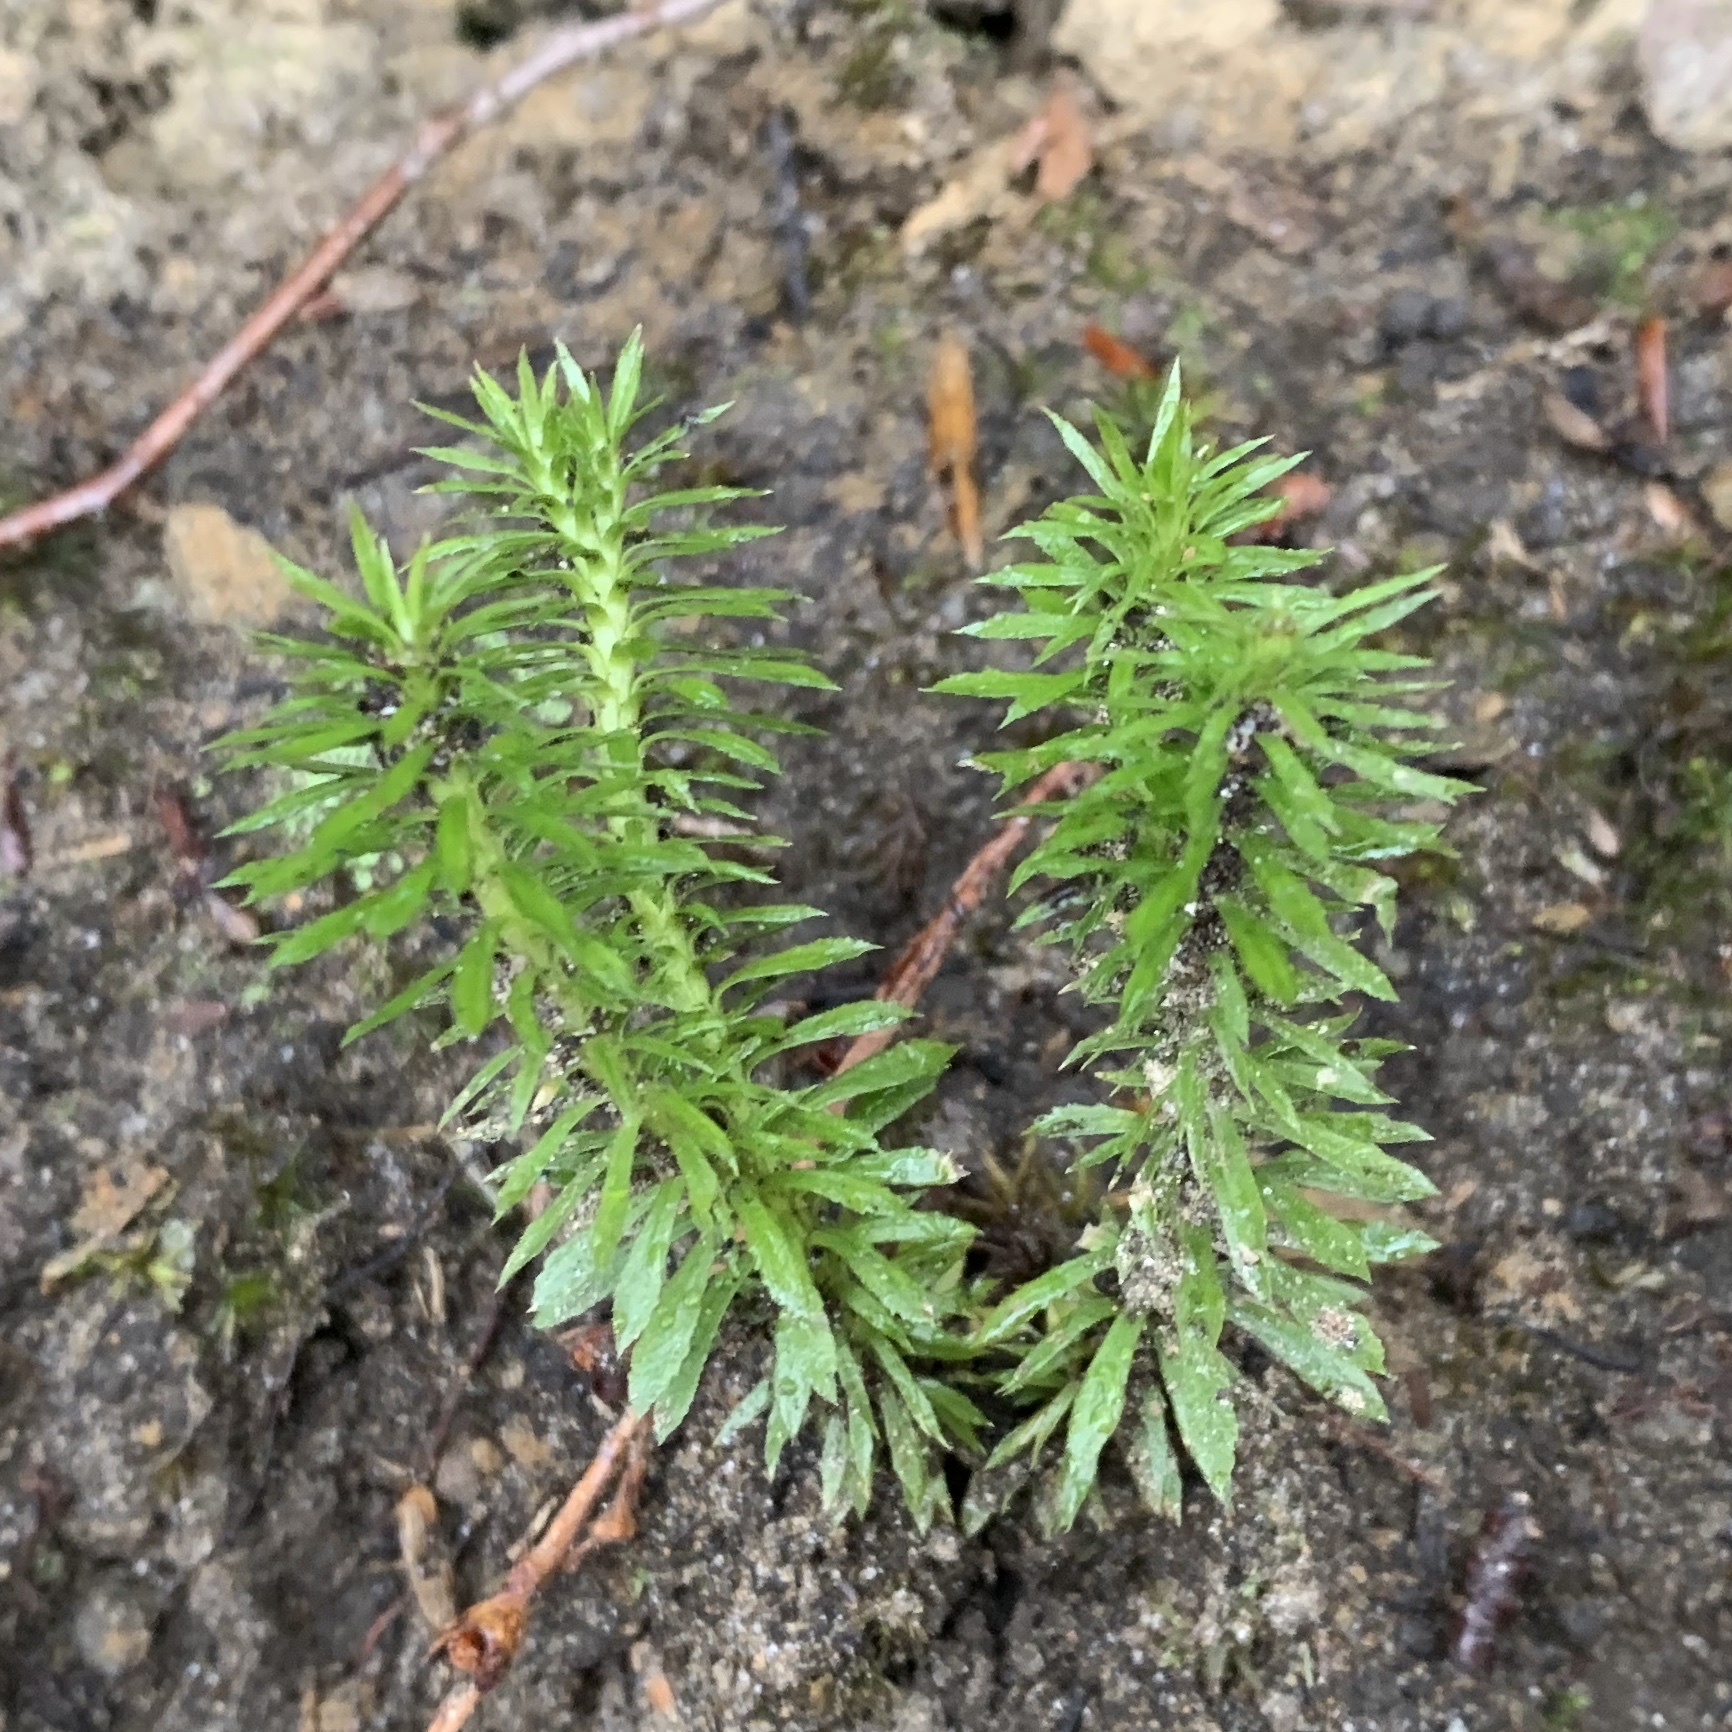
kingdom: Plantae
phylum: Tracheophyta
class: Lycopodiopsida
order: Lycopodiales
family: Lycopodiaceae
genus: Huperzia
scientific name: Huperzia lucidula
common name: Shining clubmoss
